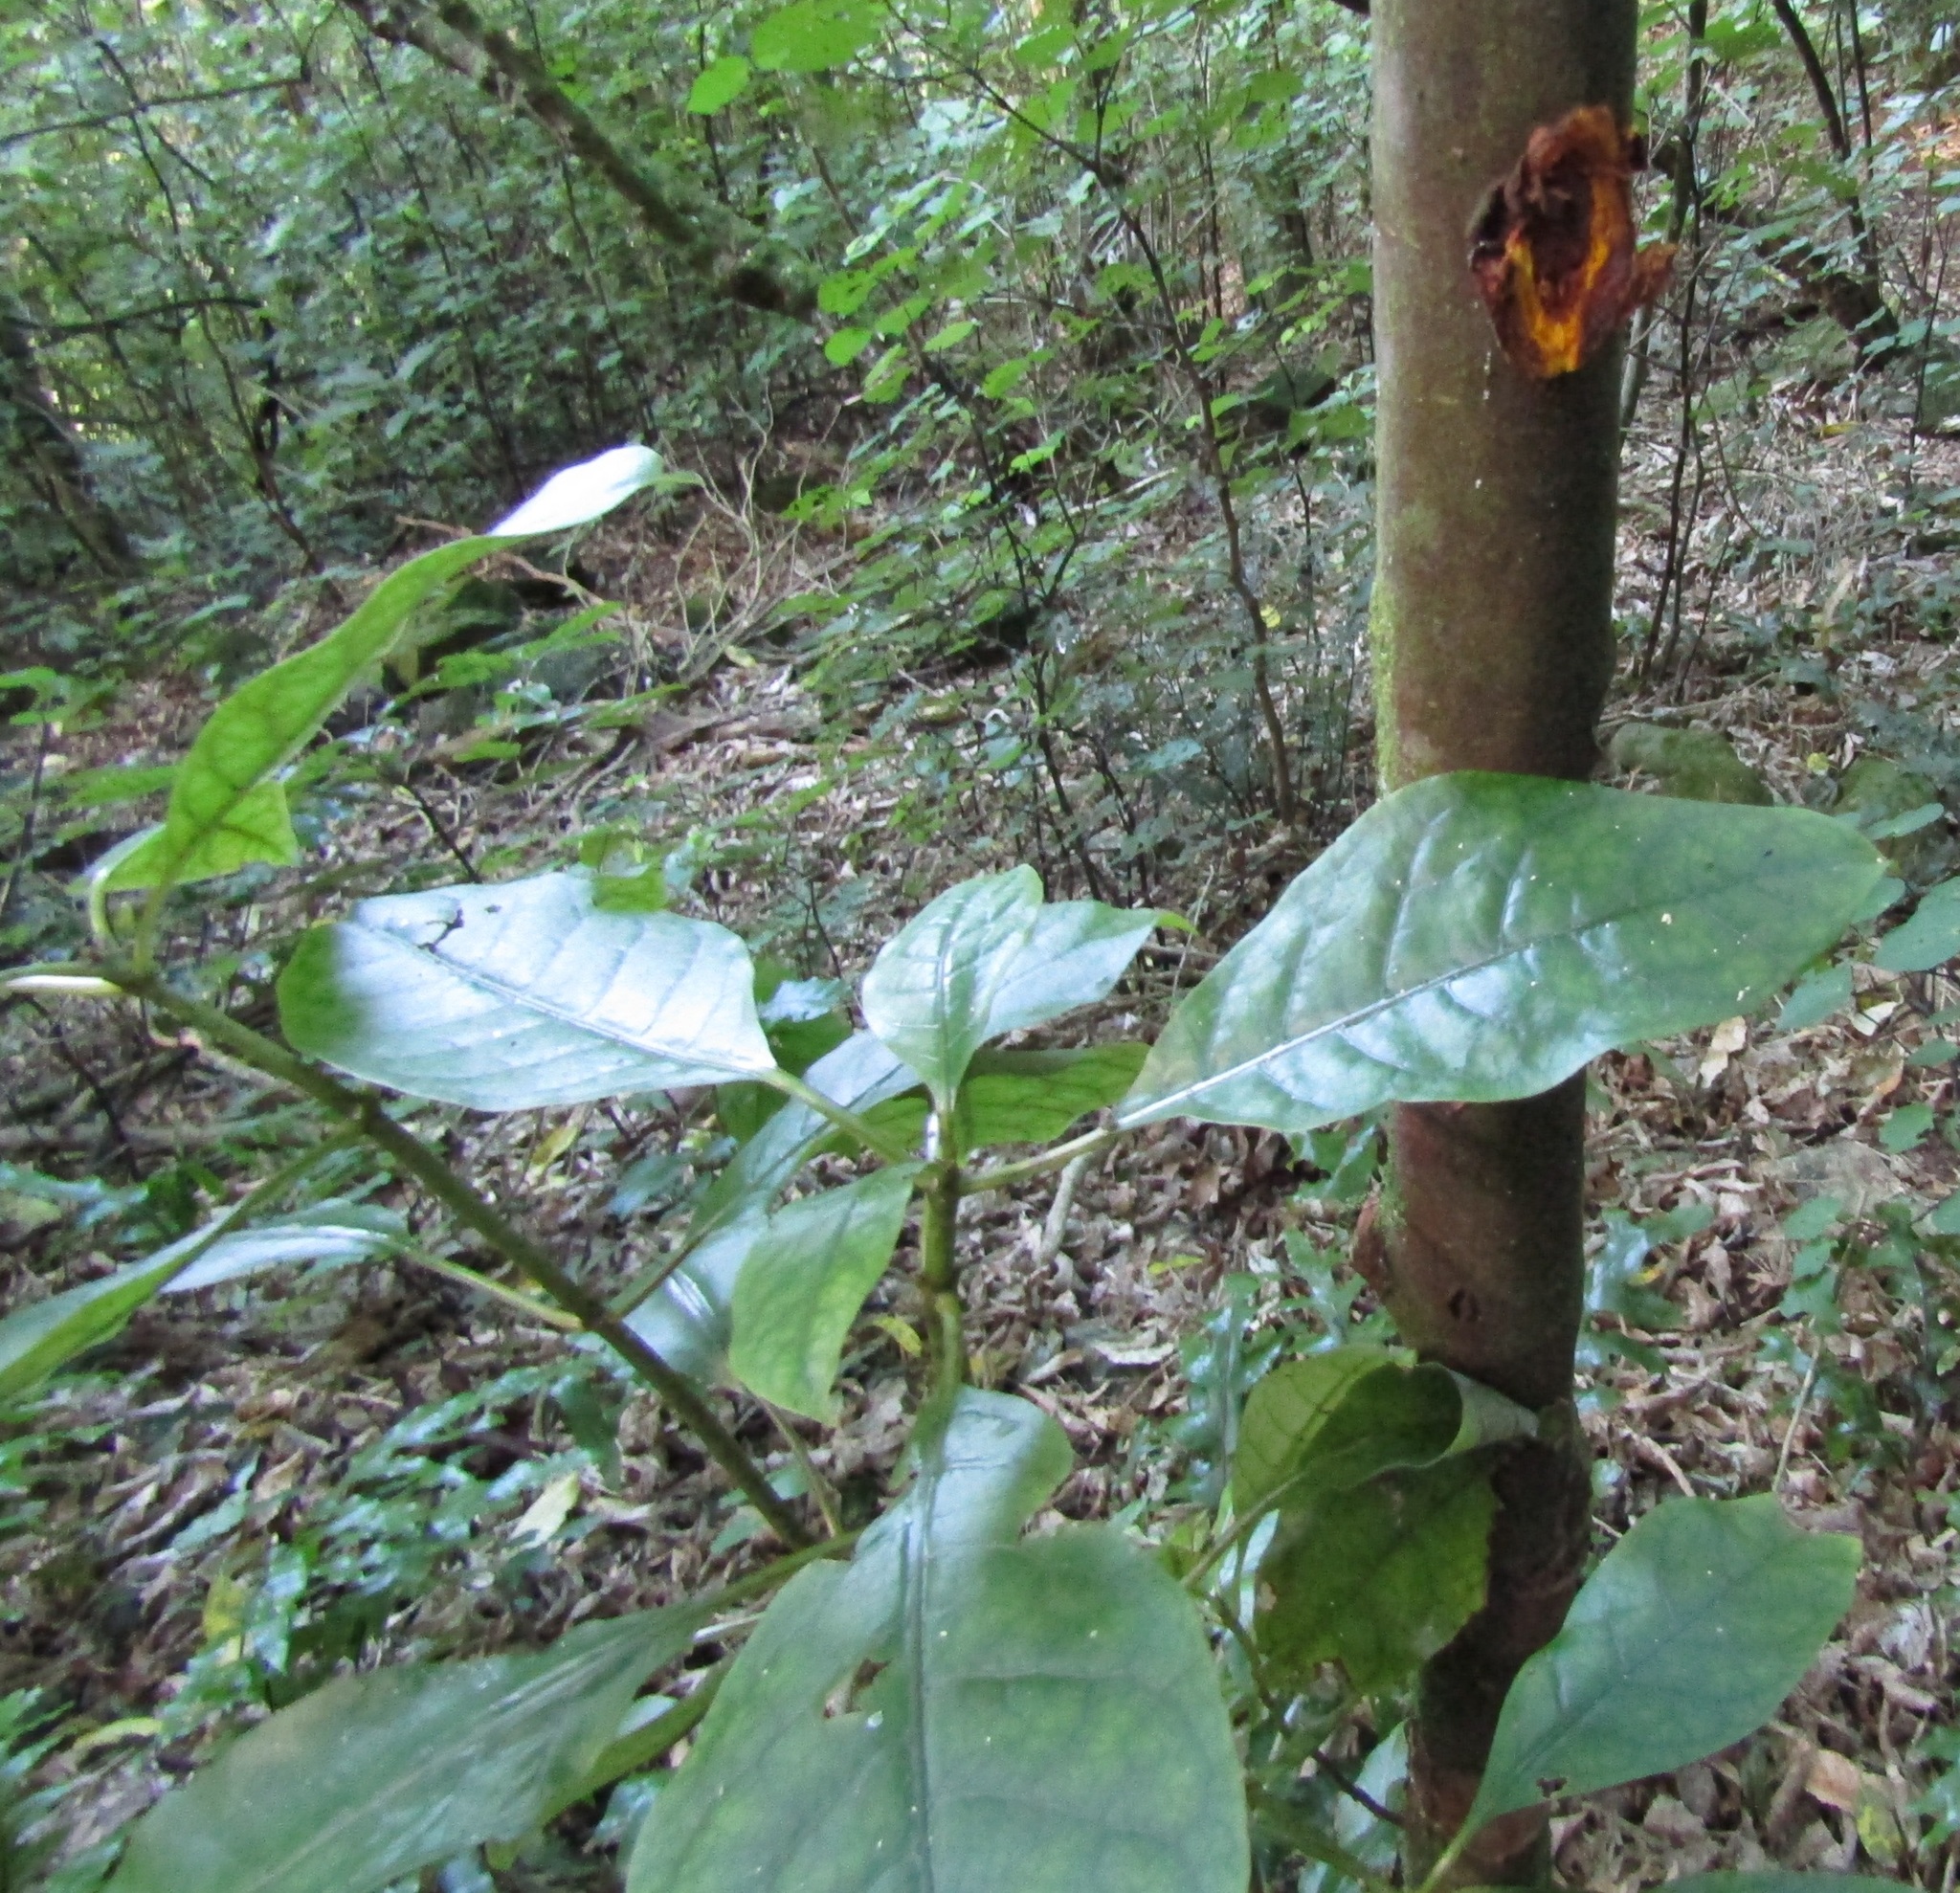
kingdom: Plantae
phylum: Tracheophyta
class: Magnoliopsida
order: Gentianales
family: Rubiaceae
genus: Coprosma
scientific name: Coprosma autumnalis
